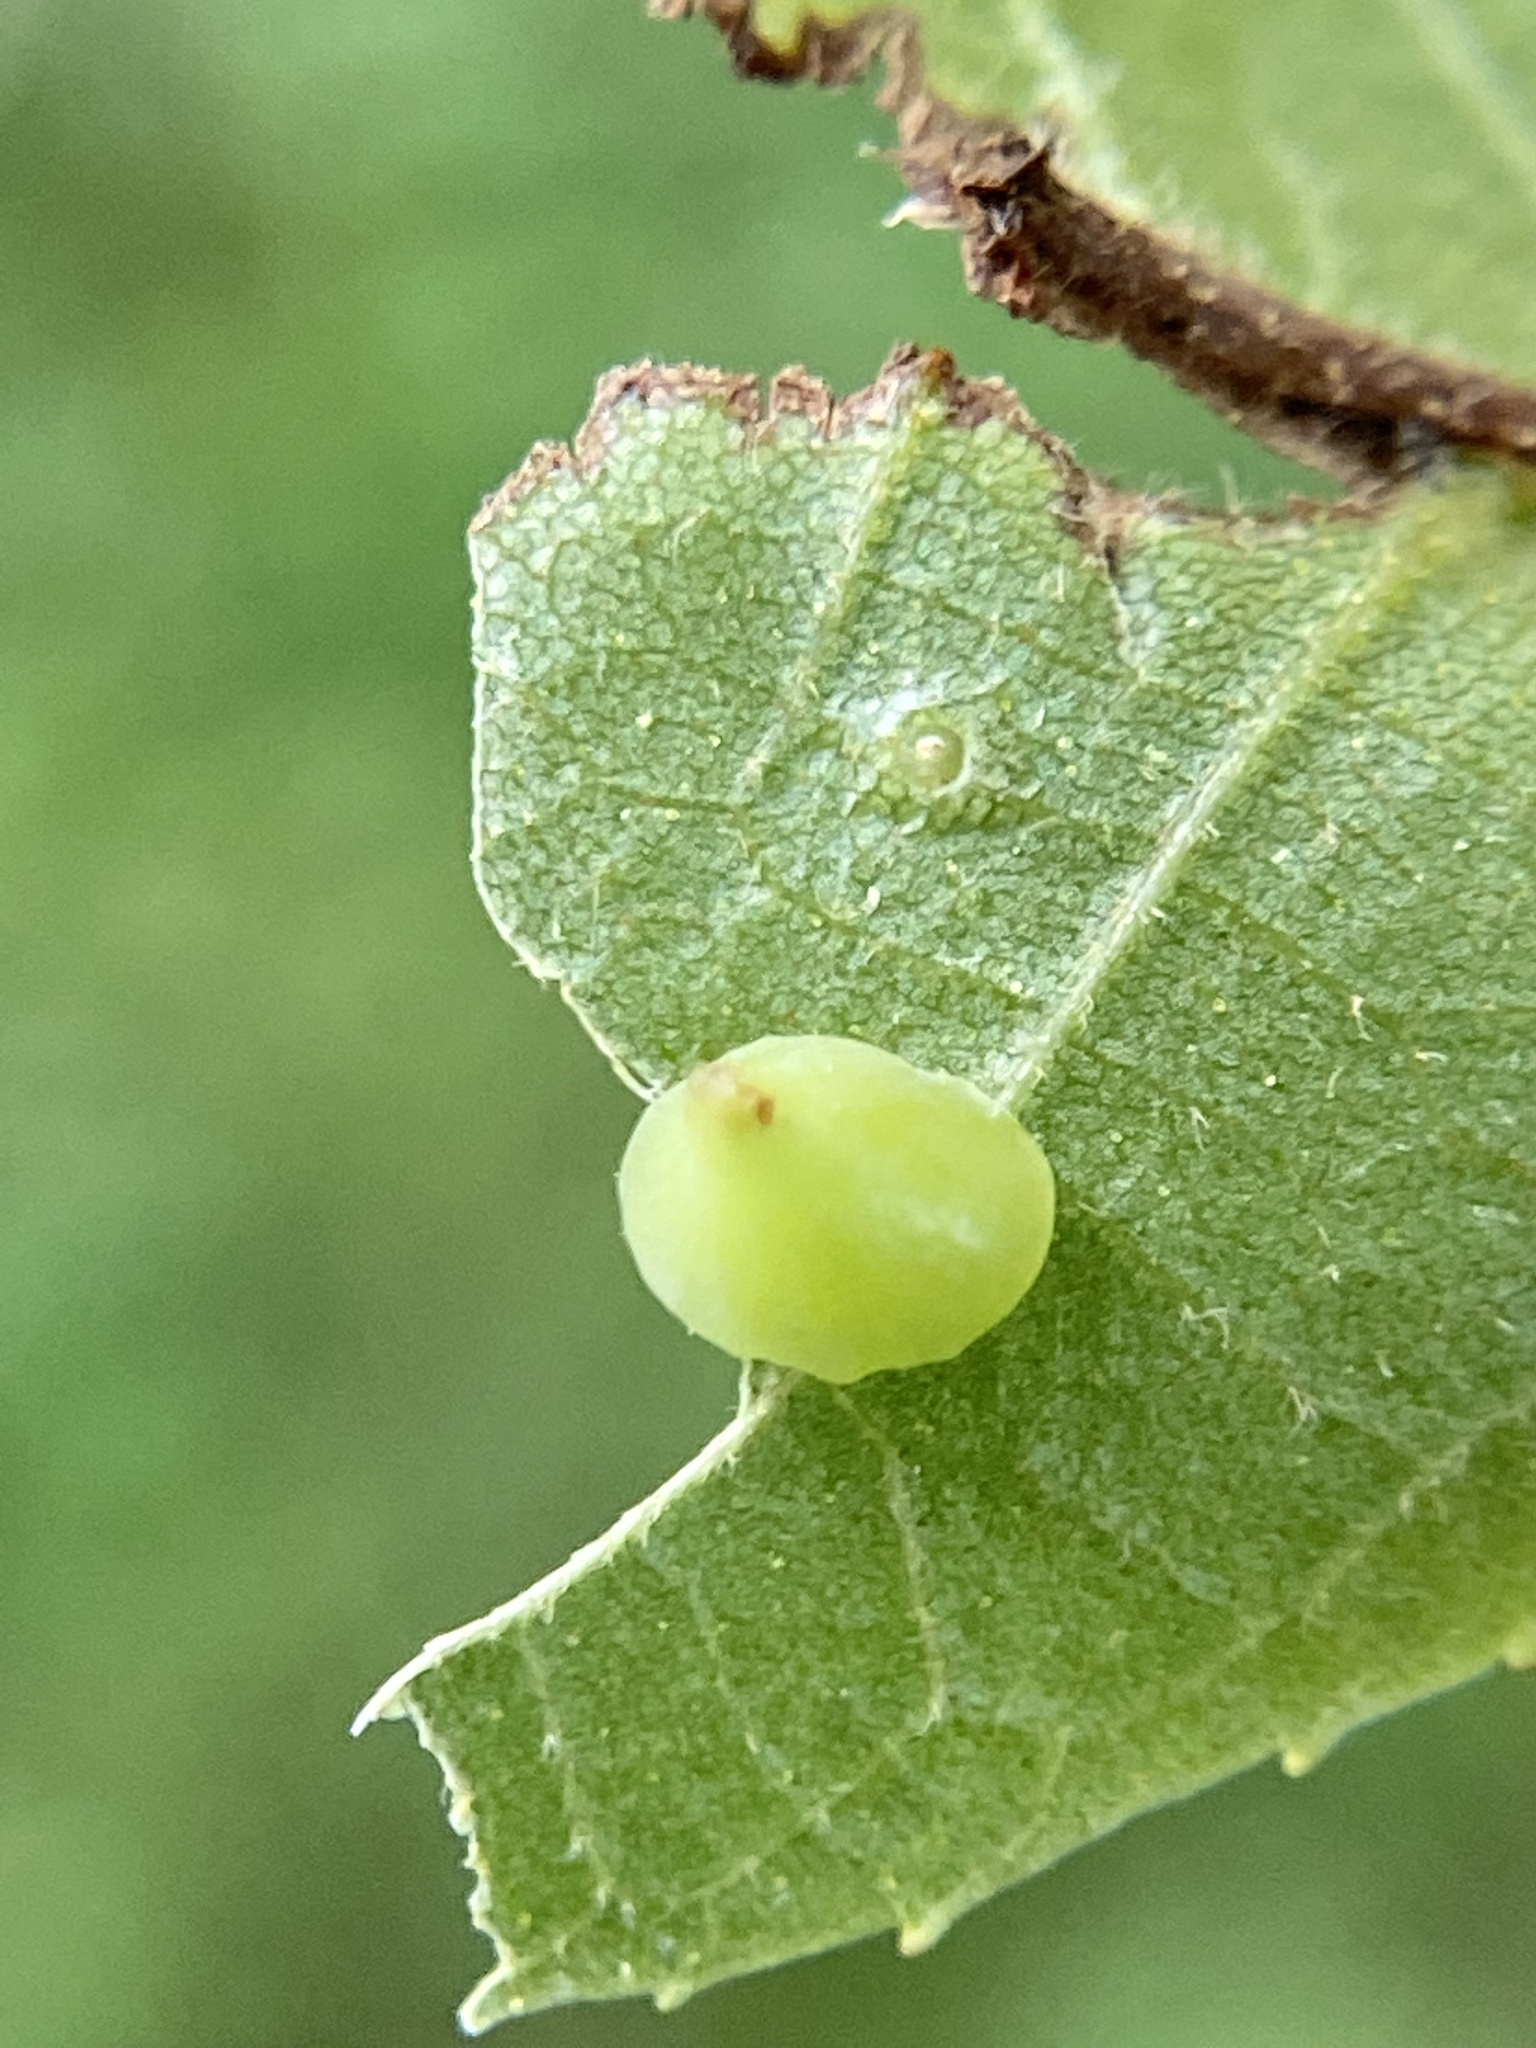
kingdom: Animalia
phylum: Arthropoda
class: Insecta
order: Diptera
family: Cecidomyiidae
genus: Caryomyia
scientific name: Caryomyia sanguinolenta
